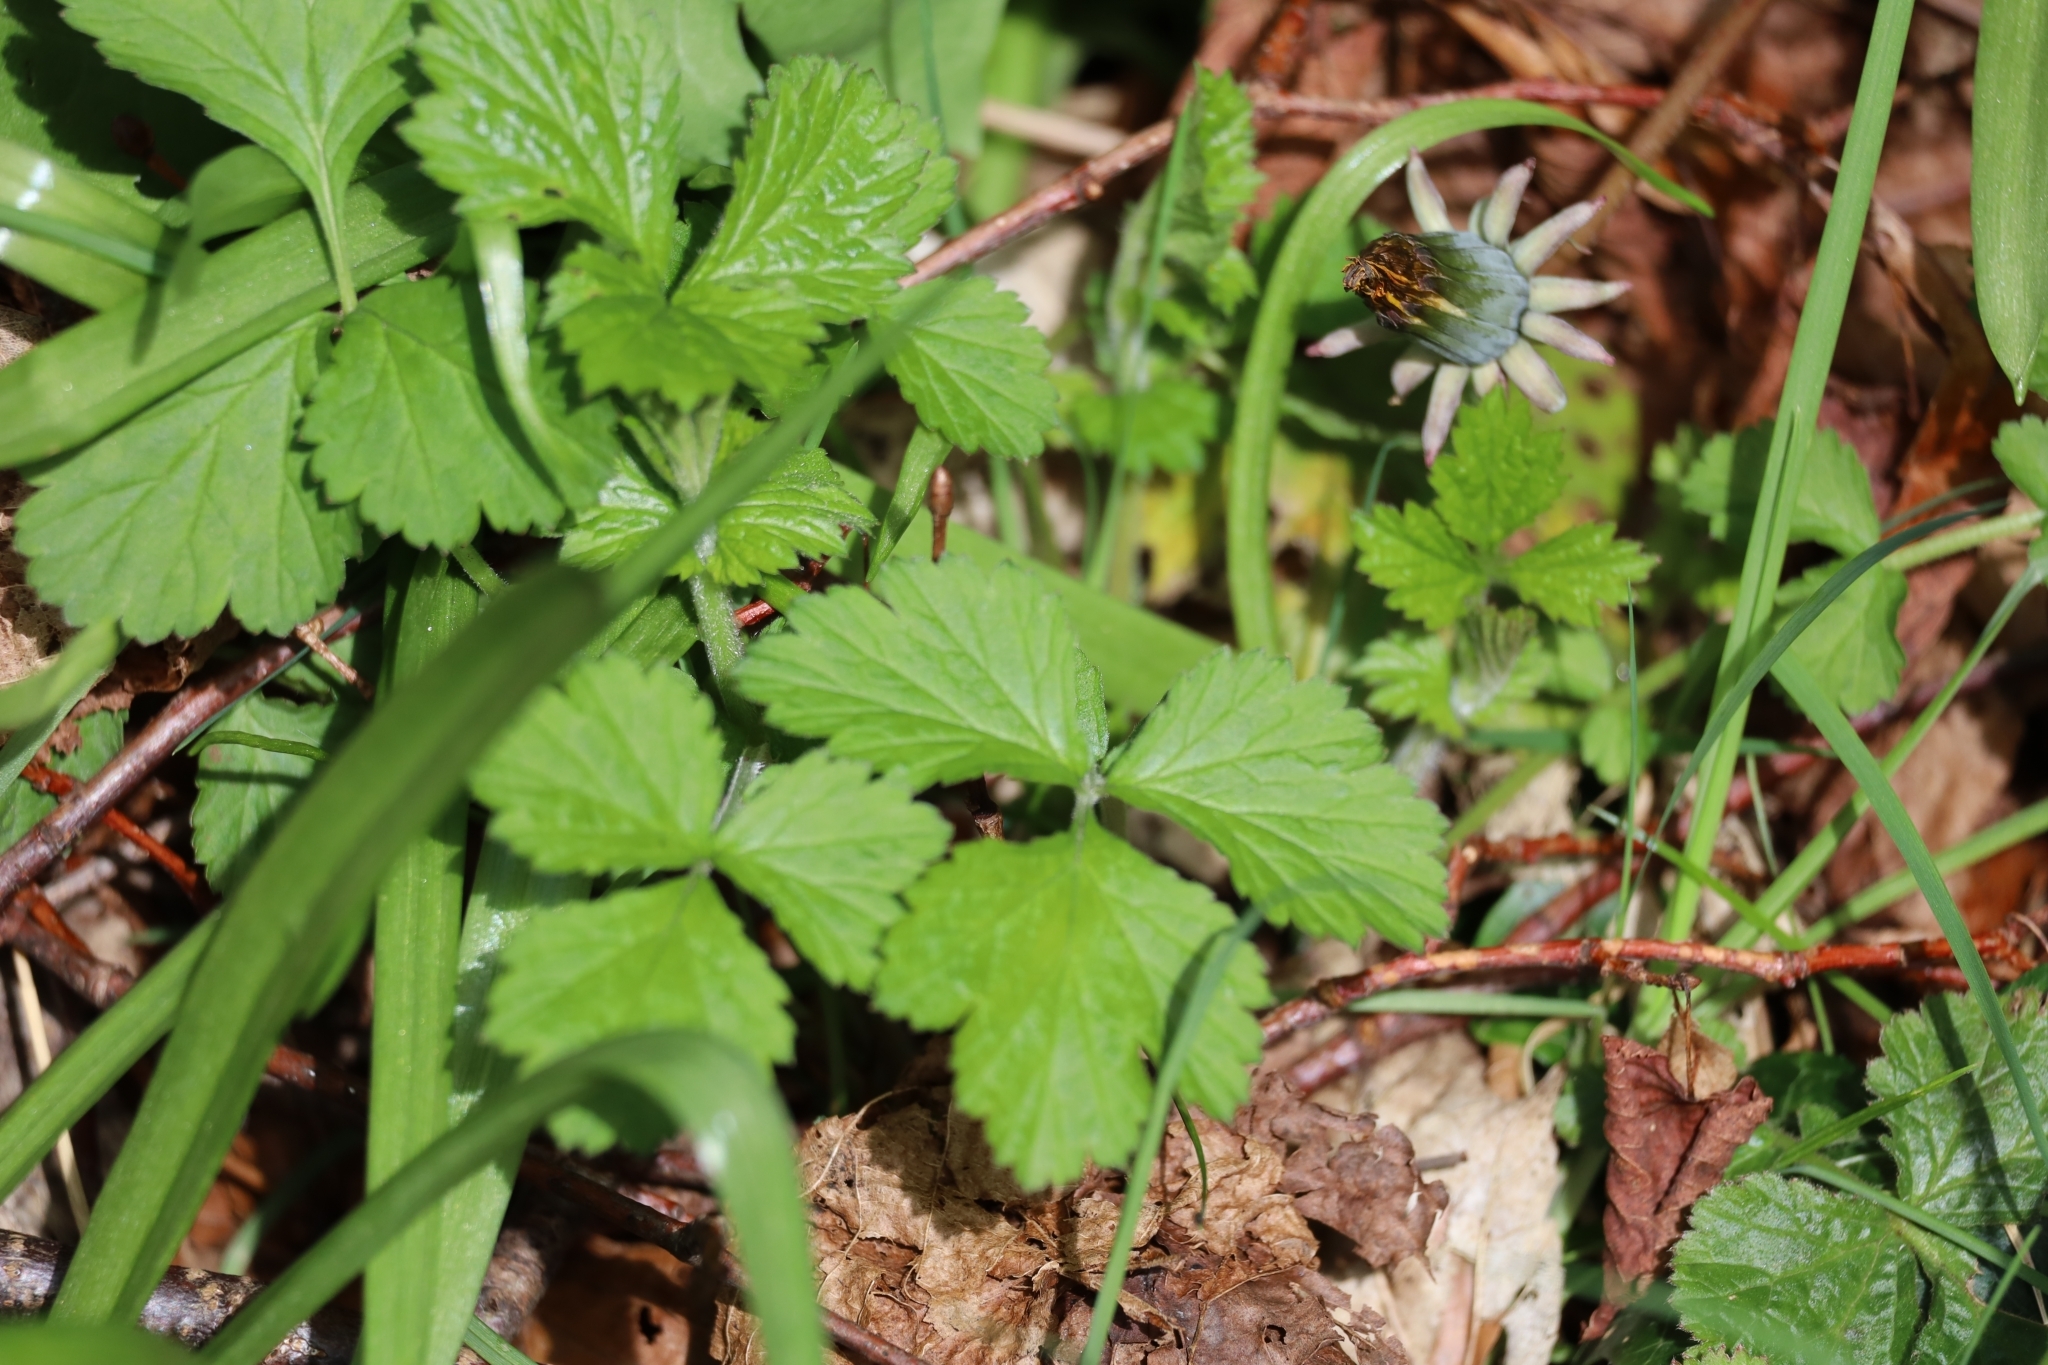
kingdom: Plantae
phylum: Tracheophyta
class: Magnoliopsida
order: Rosales
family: Rosaceae
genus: Geum
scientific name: Geum urbanum
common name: Wood avens
